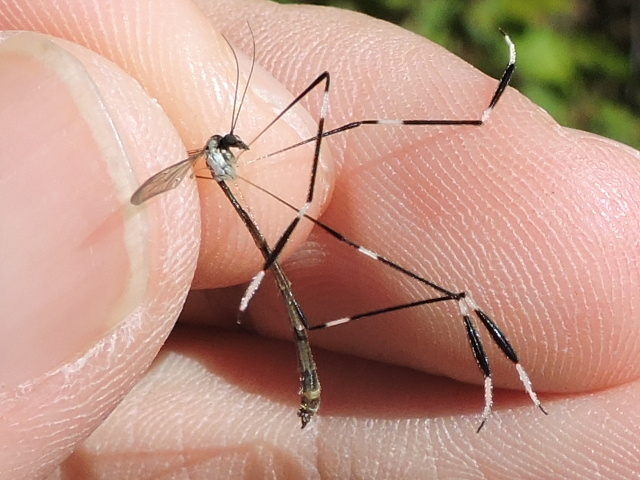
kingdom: Animalia
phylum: Arthropoda
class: Insecta
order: Diptera
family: Ptychopteridae
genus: Bittacomorpha
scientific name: Bittacomorpha clavipes
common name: Eastern phantom crane fly
